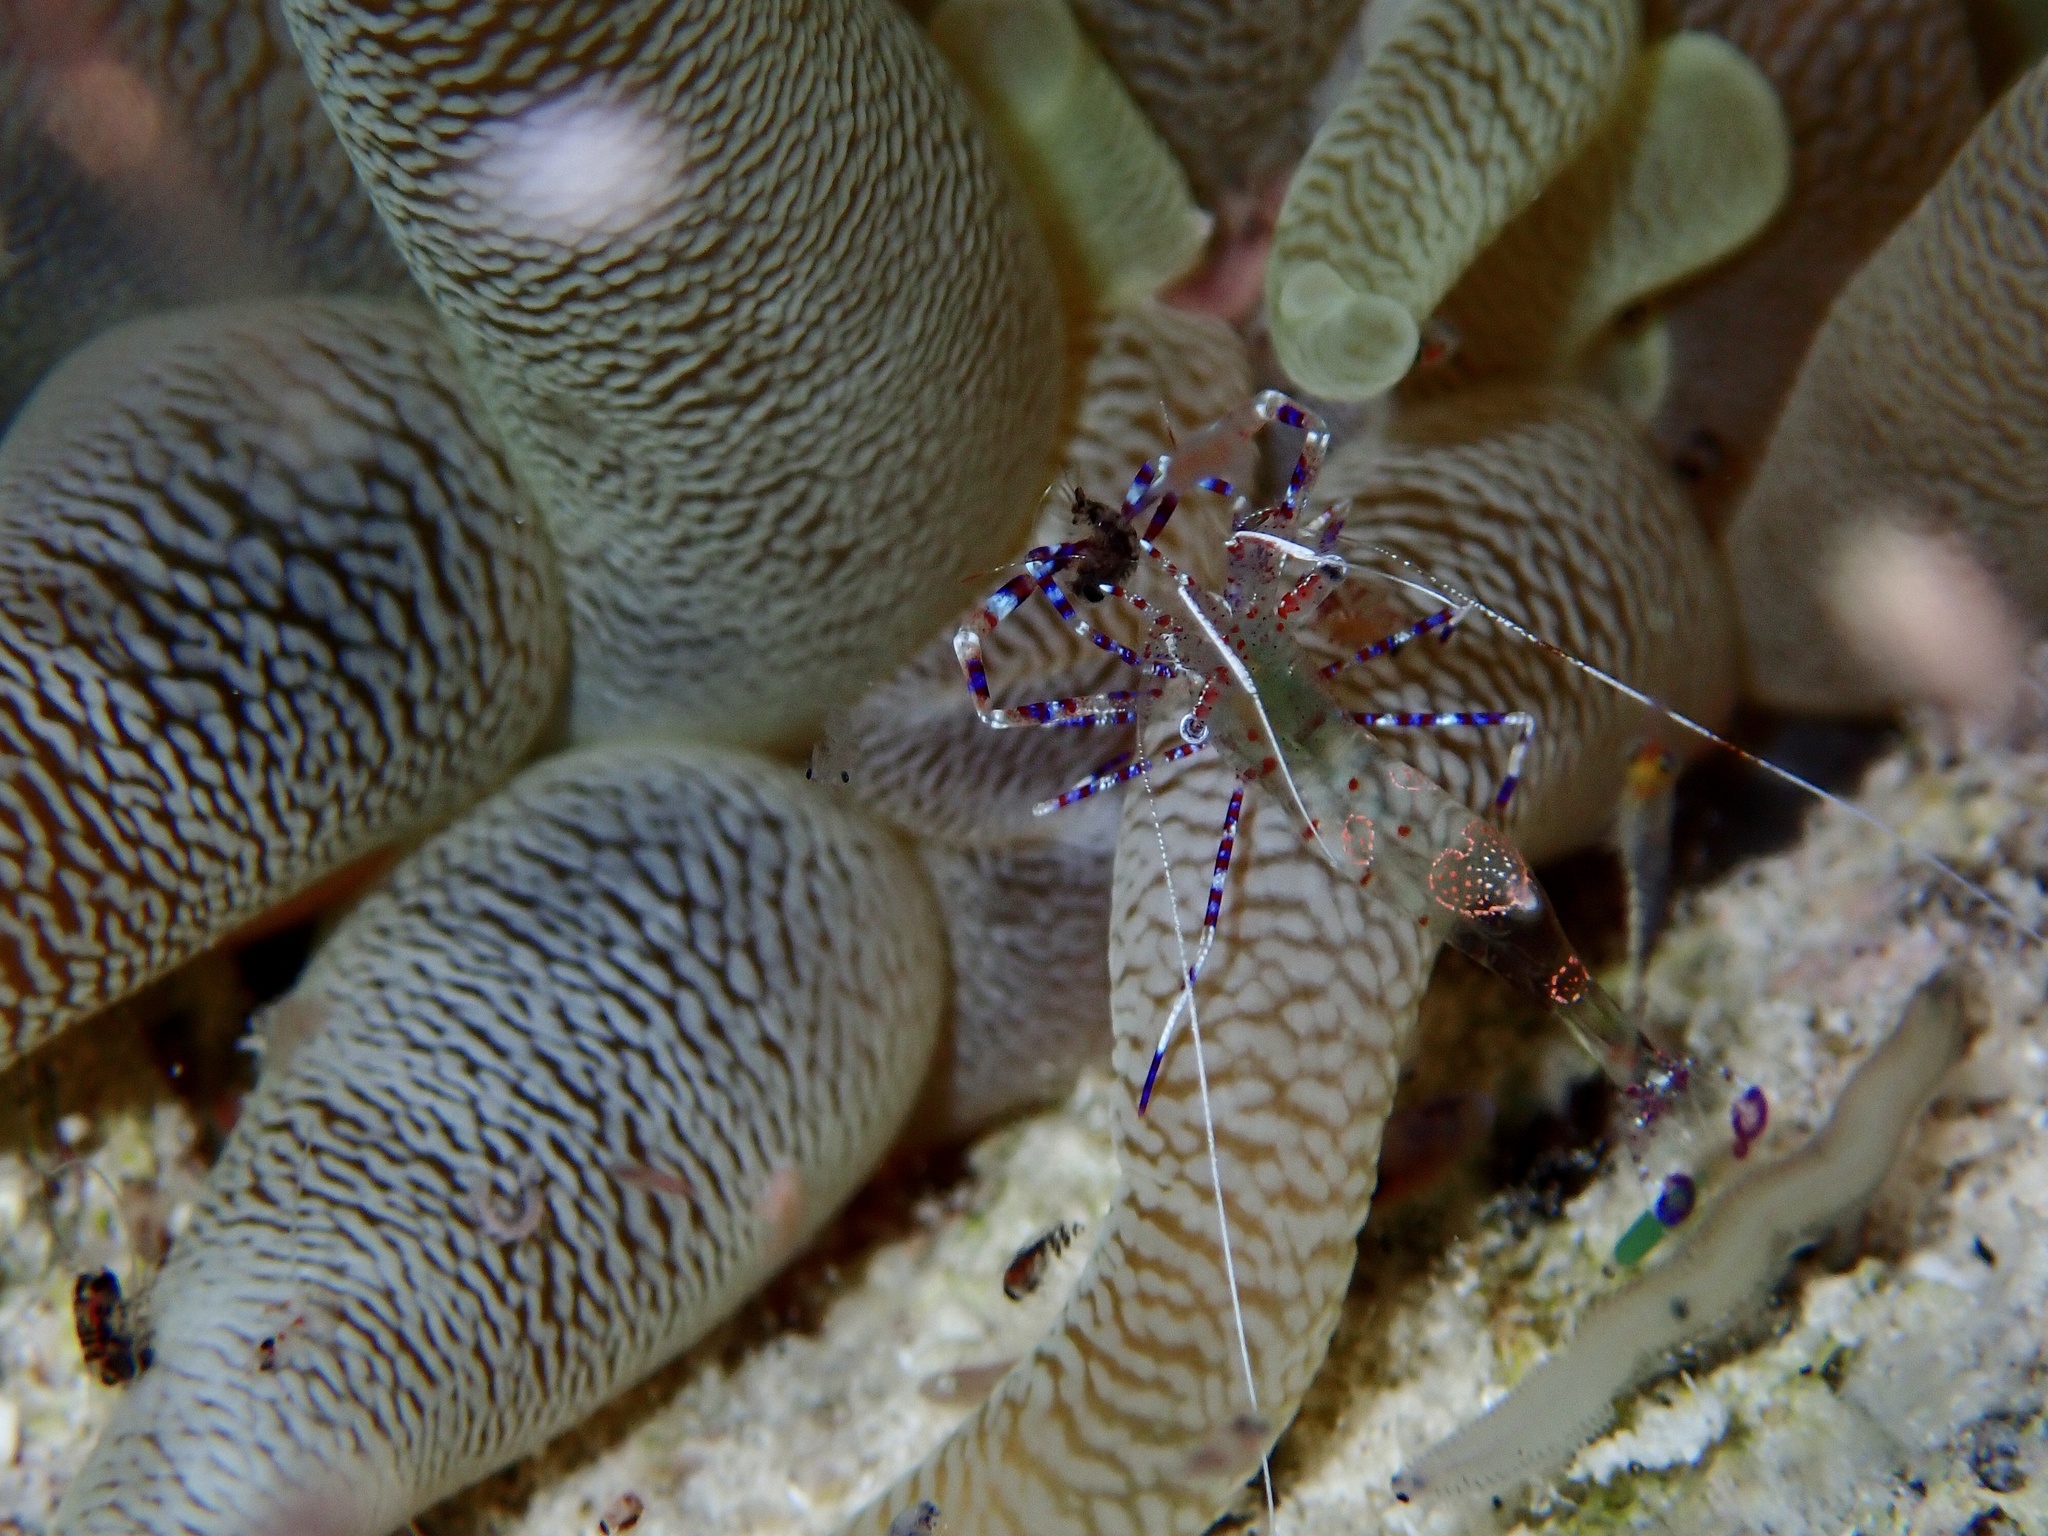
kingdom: Animalia
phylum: Arthropoda
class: Malacostraca
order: Decapoda
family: Palaemonidae
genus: Periclimenes
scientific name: Periclimenes yucatanicus
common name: Spotted cleaning shrimp
